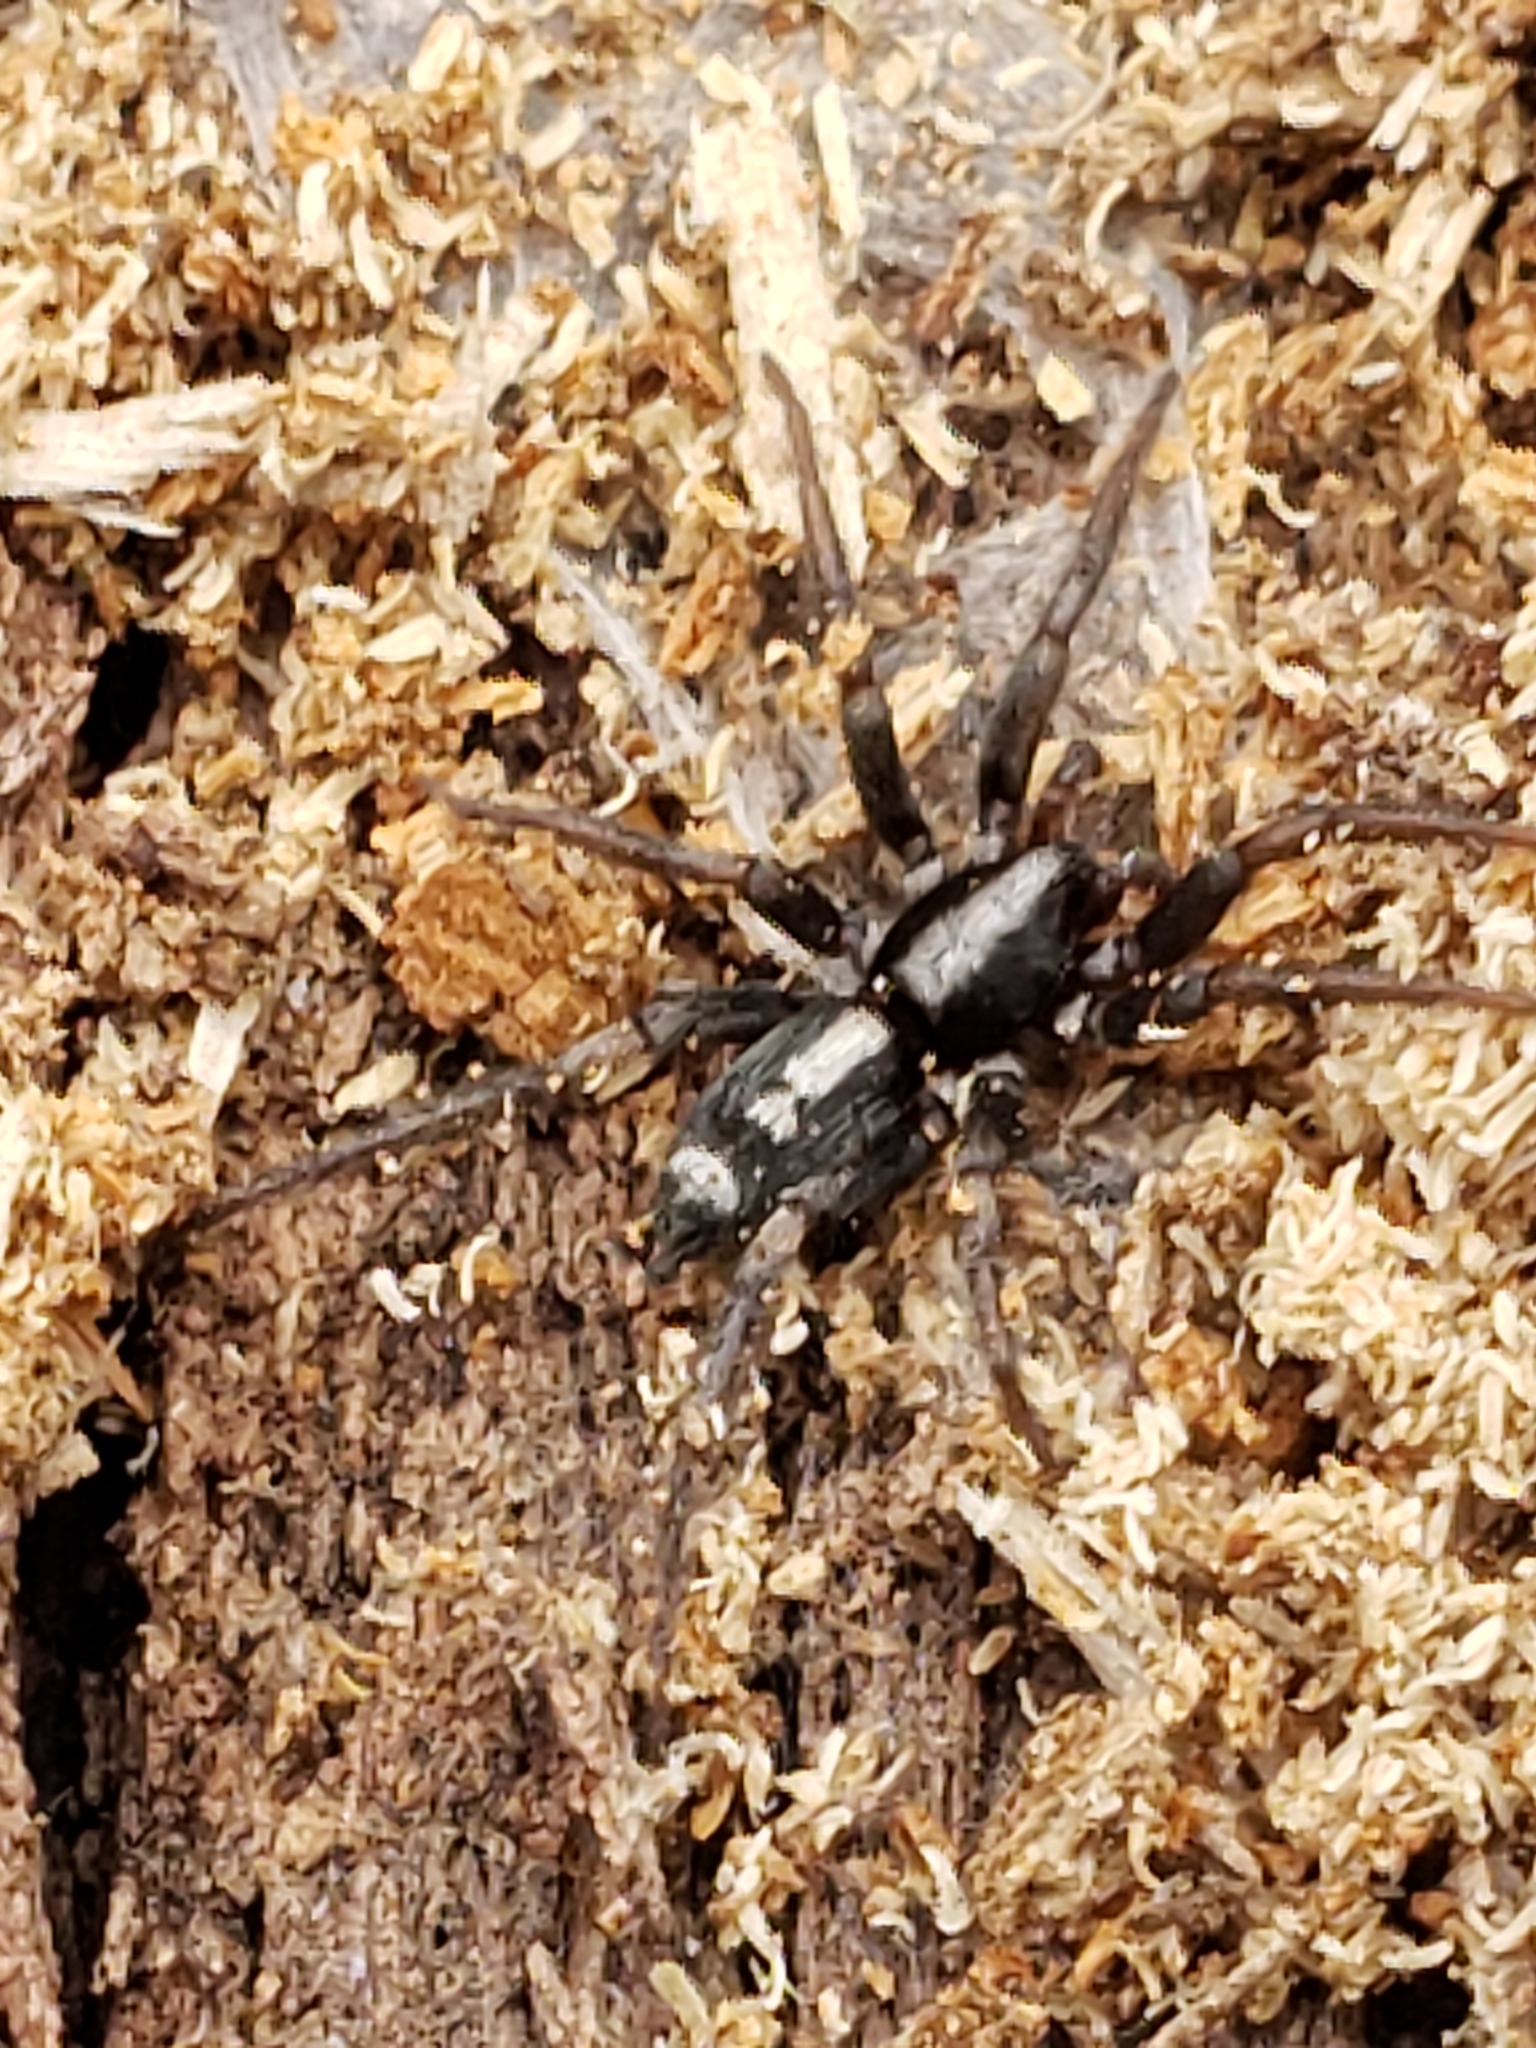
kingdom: Animalia
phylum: Arthropoda
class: Arachnida
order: Araneae
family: Gnaphosidae
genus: Herpyllus
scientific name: Herpyllus ecclesiasticus
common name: Eastern parson spider
